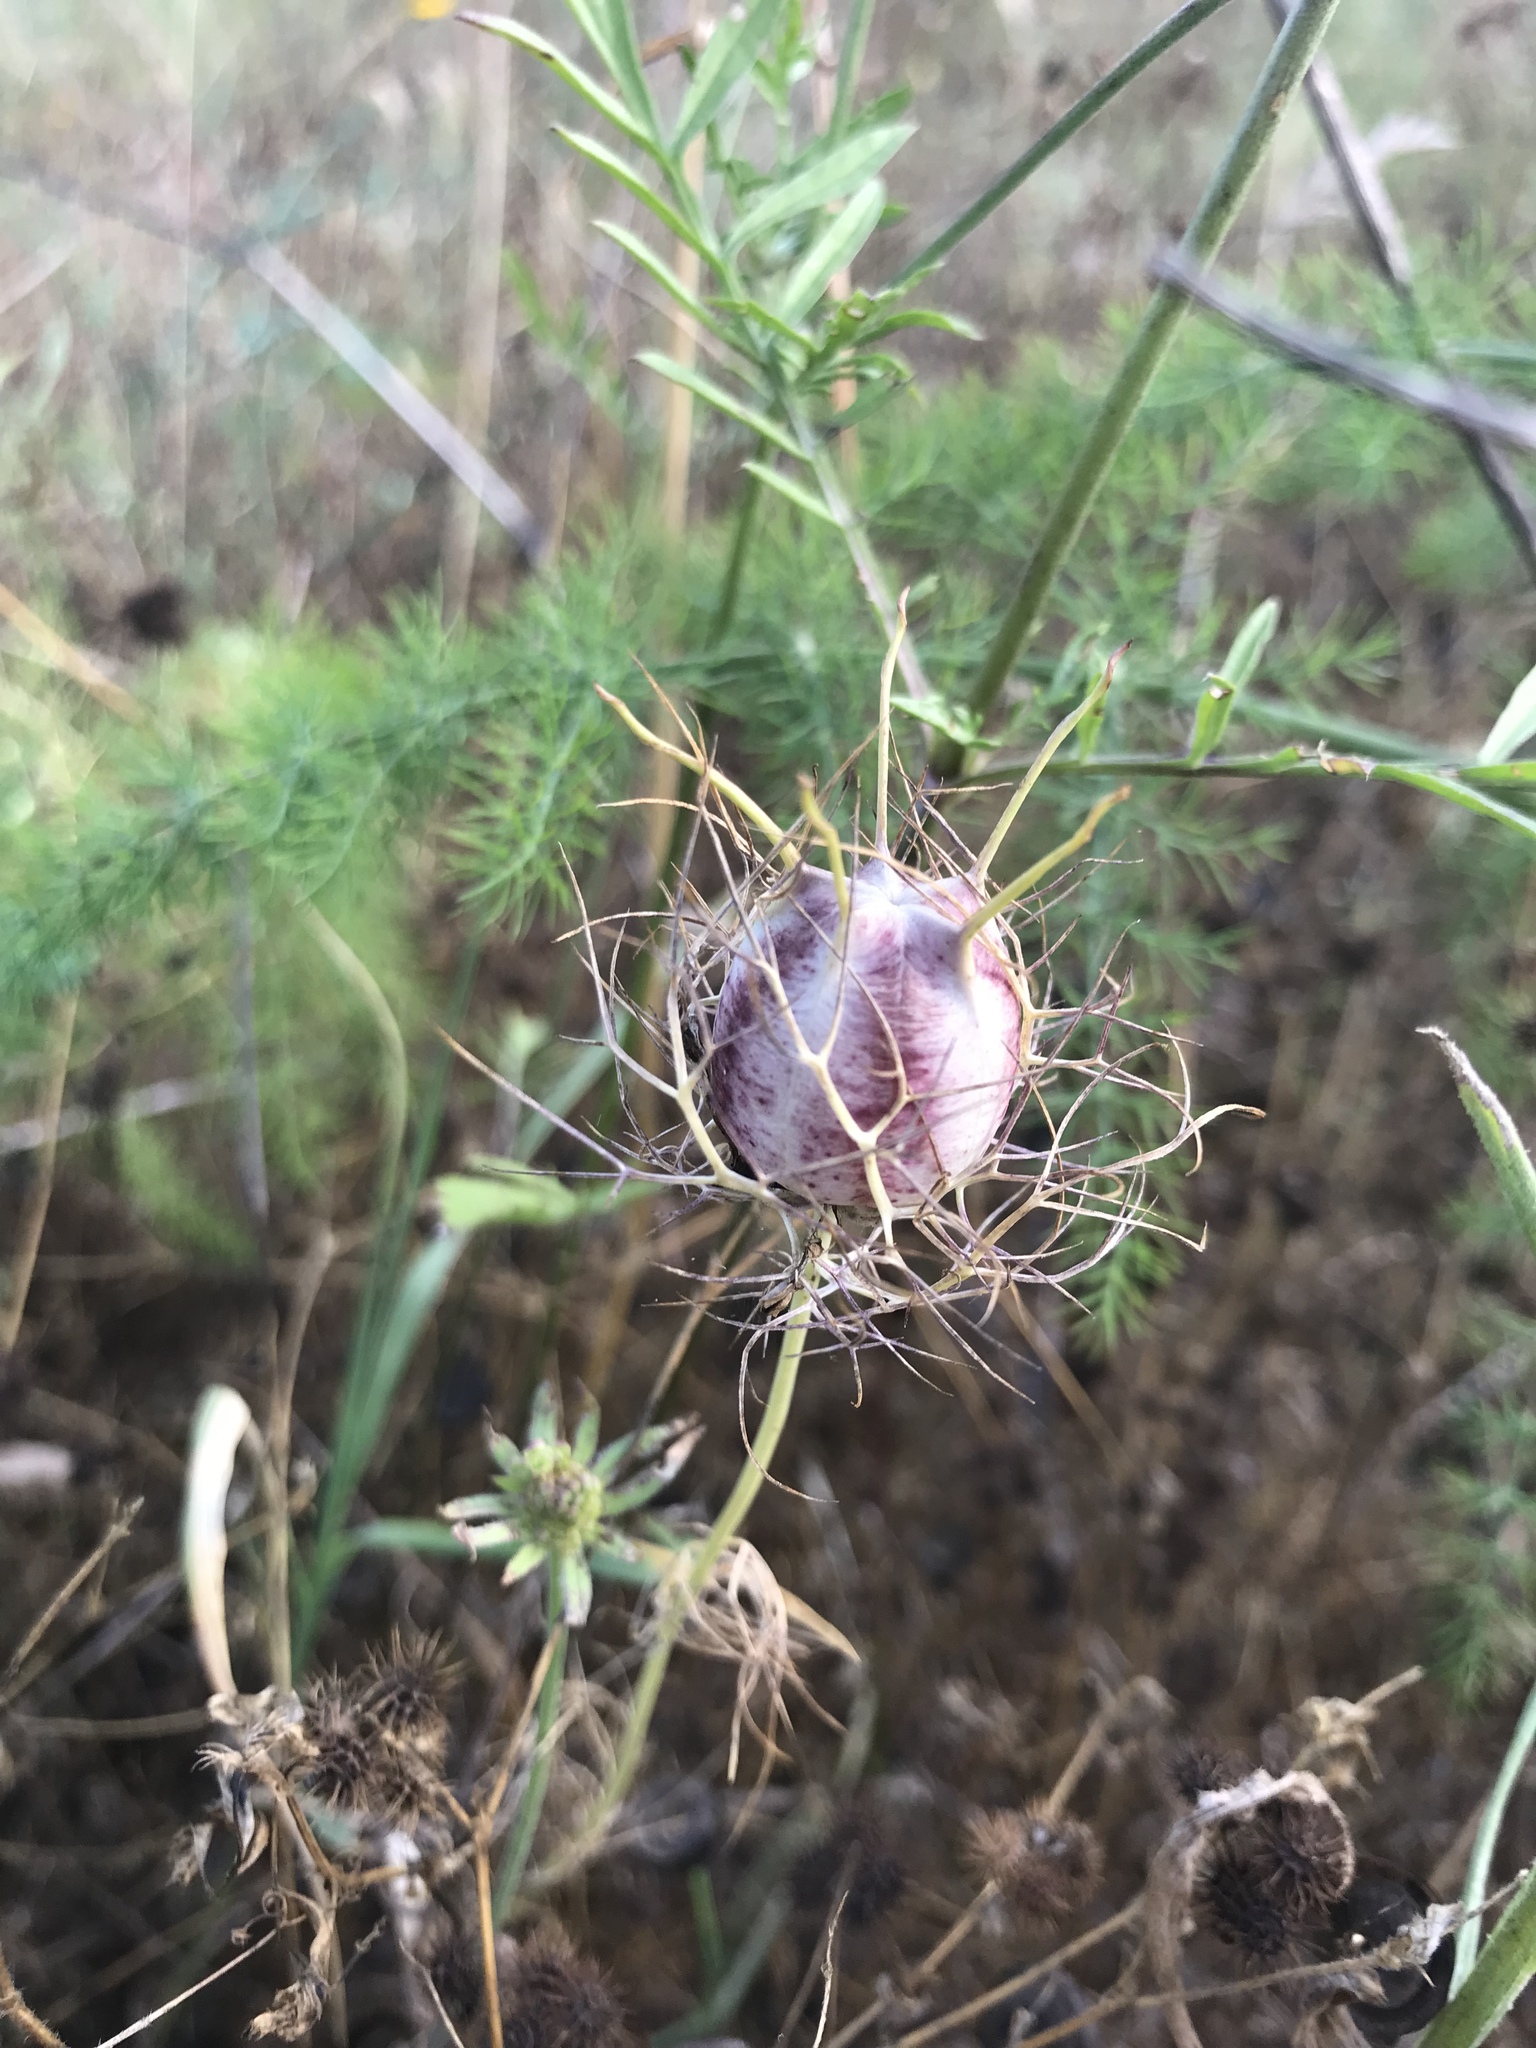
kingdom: Plantae
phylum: Tracheophyta
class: Magnoliopsida
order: Ranunculales
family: Ranunculaceae
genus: Nigella
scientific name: Nigella damascena
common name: Love-in-a-mist
